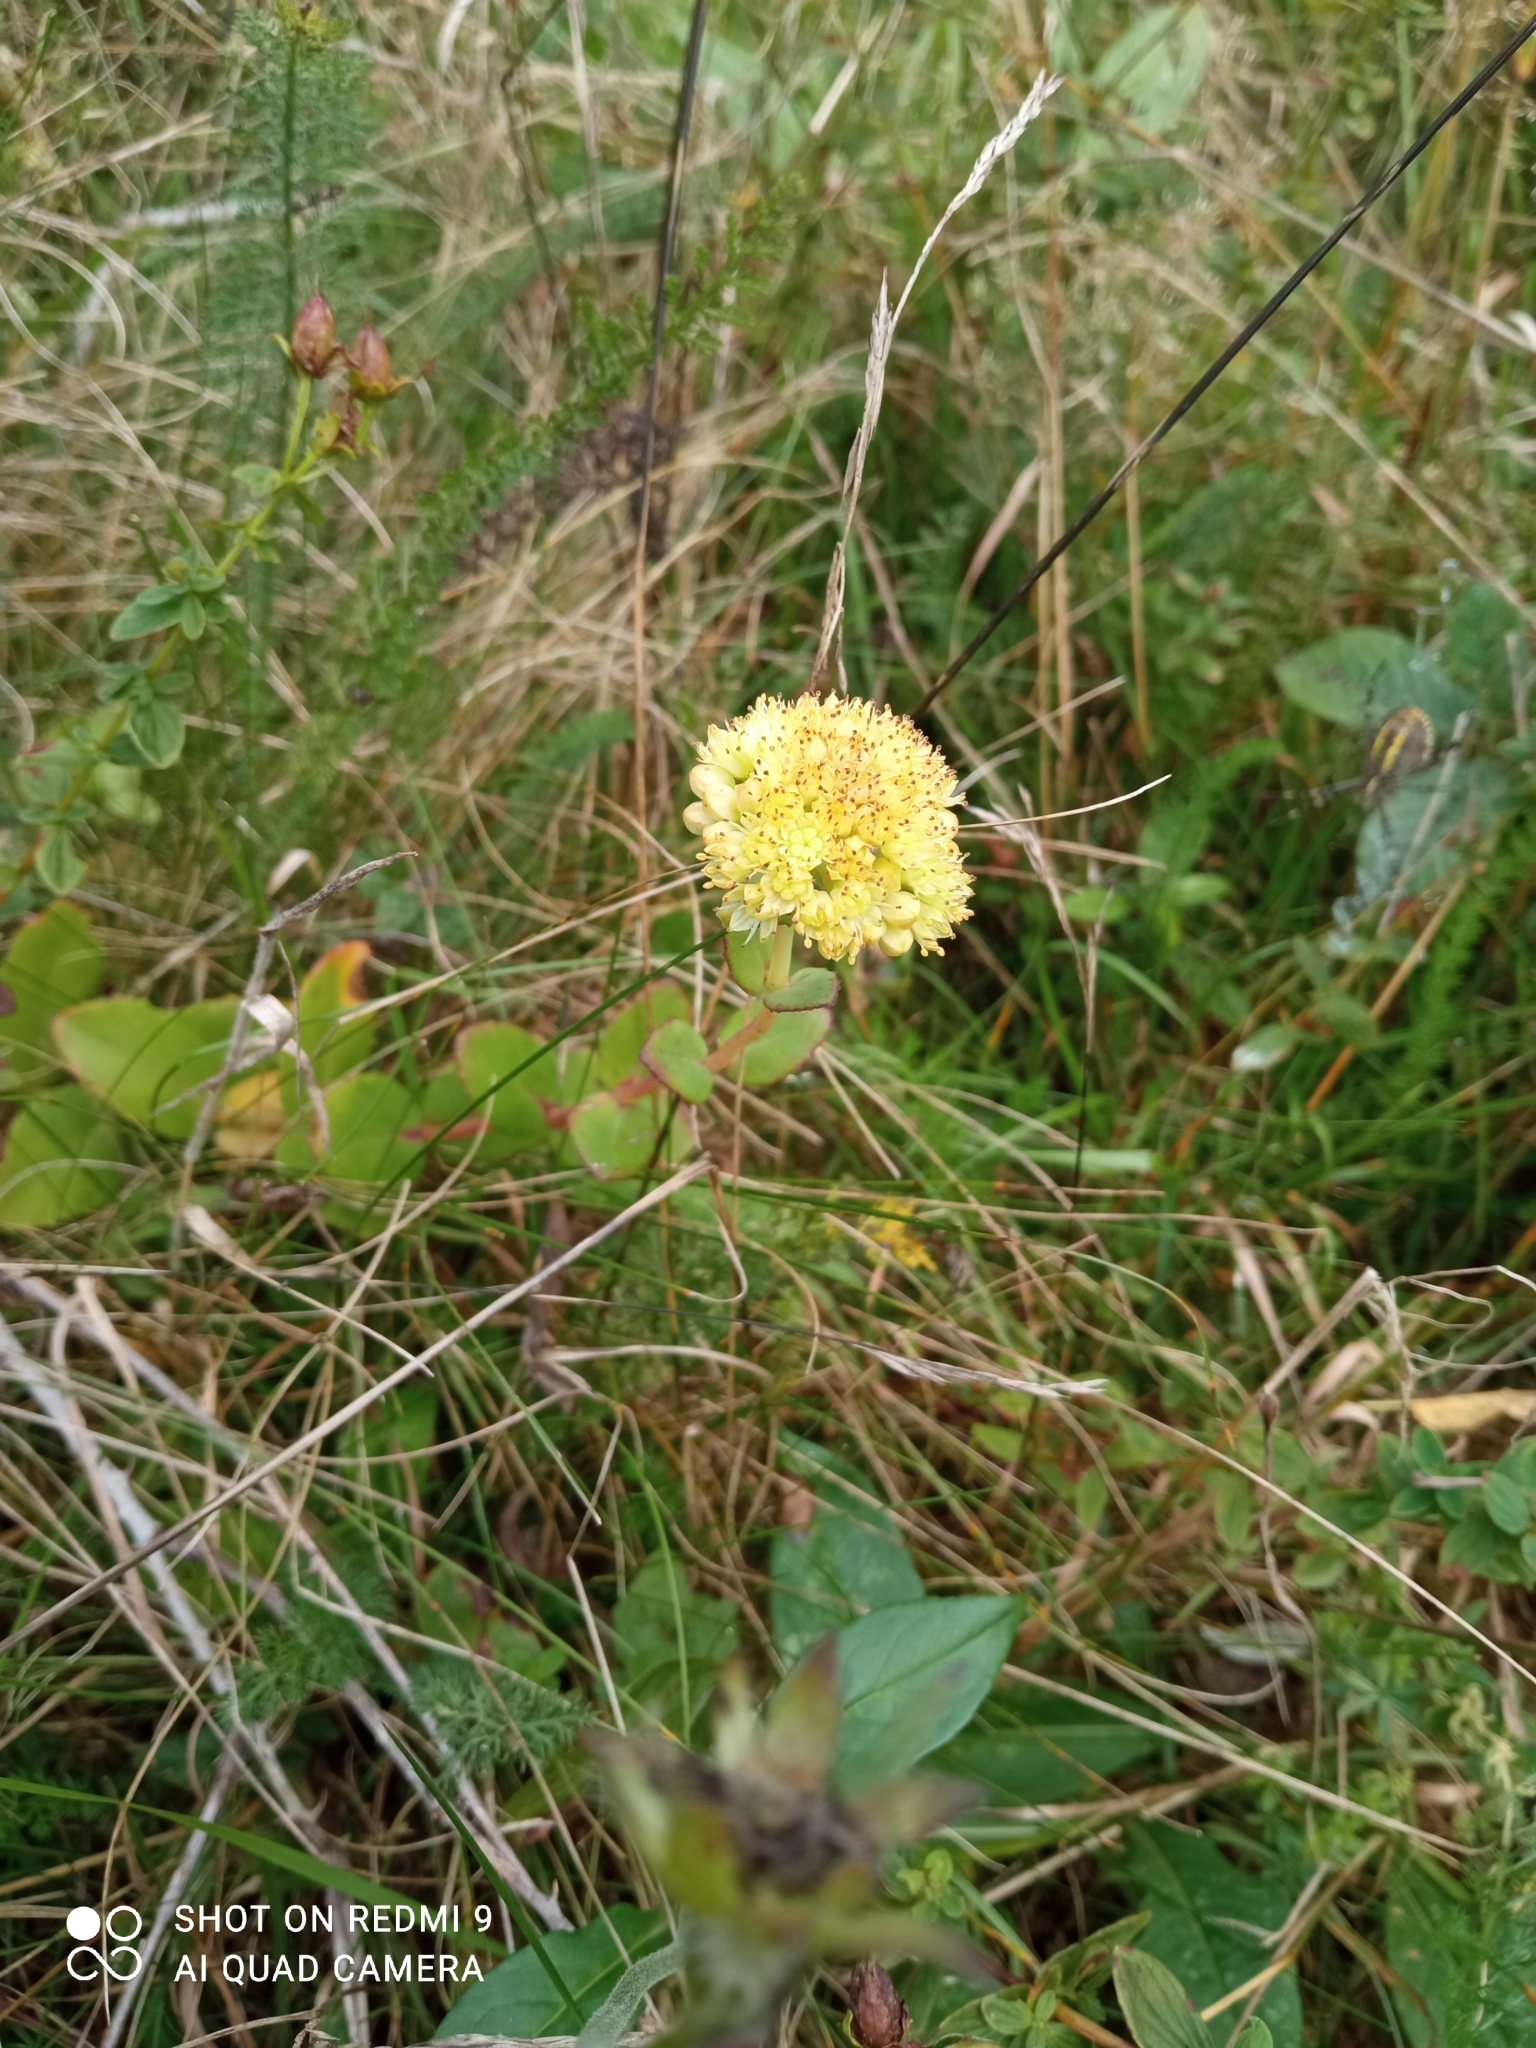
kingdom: Plantae
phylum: Tracheophyta
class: Magnoliopsida
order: Saxifragales
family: Crassulaceae
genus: Hylotelephium
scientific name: Hylotelephium maximum
